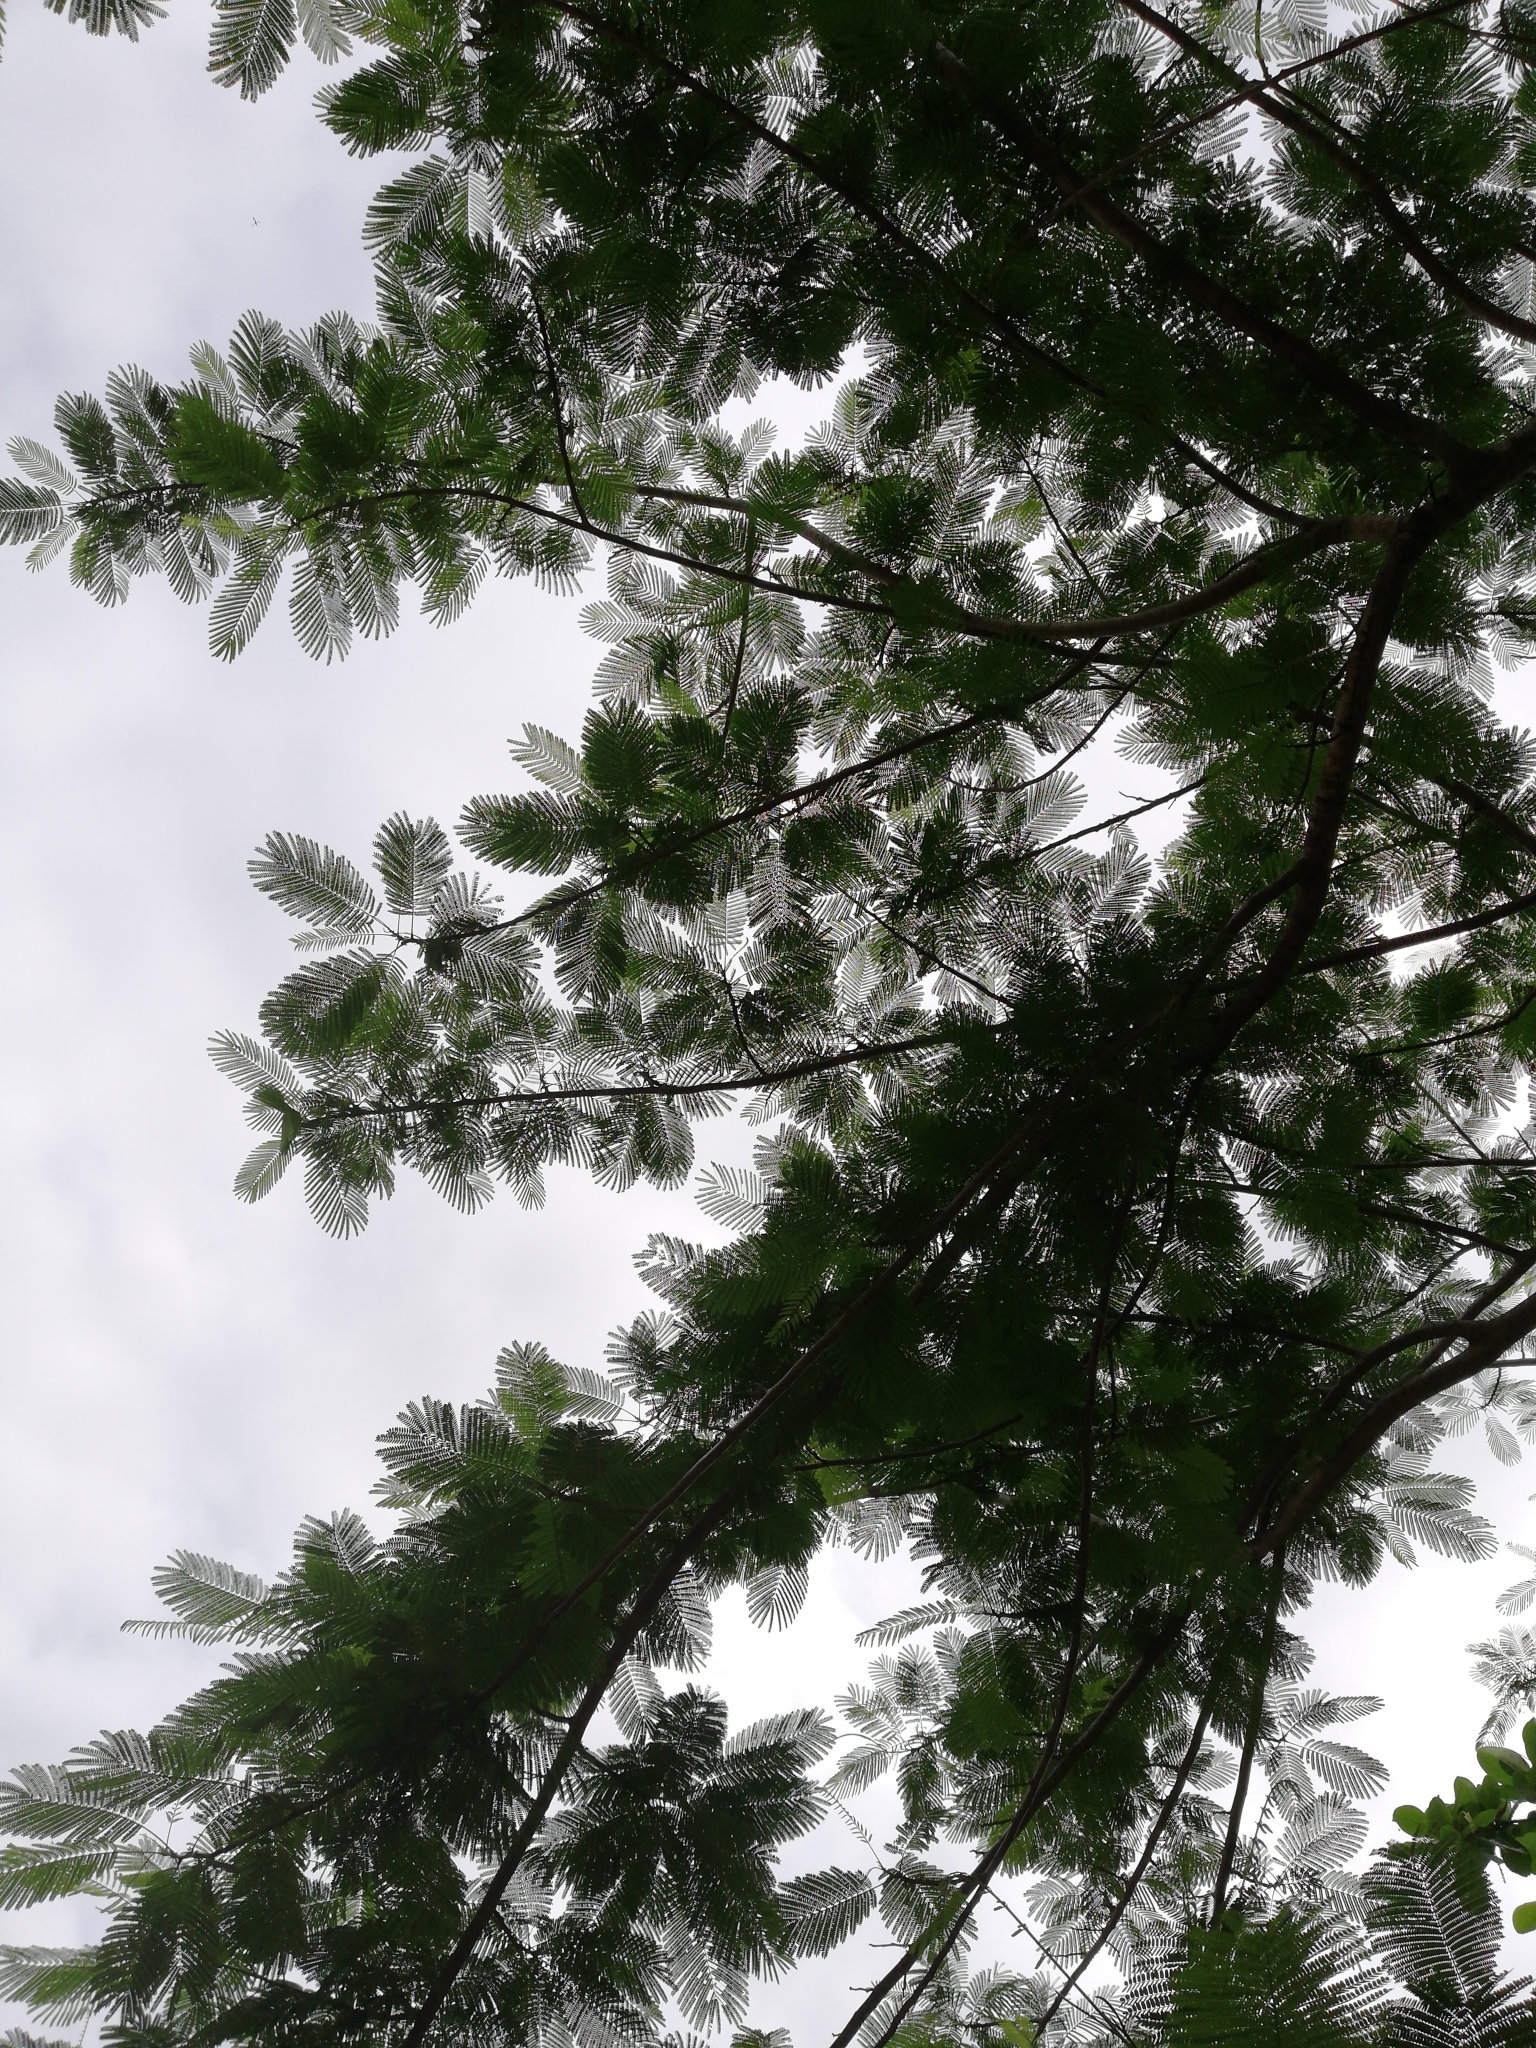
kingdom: Plantae
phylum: Tracheophyta
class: Magnoliopsida
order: Fabales
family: Fabaceae
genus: Delonix
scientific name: Delonix regia
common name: Royal poinciana
